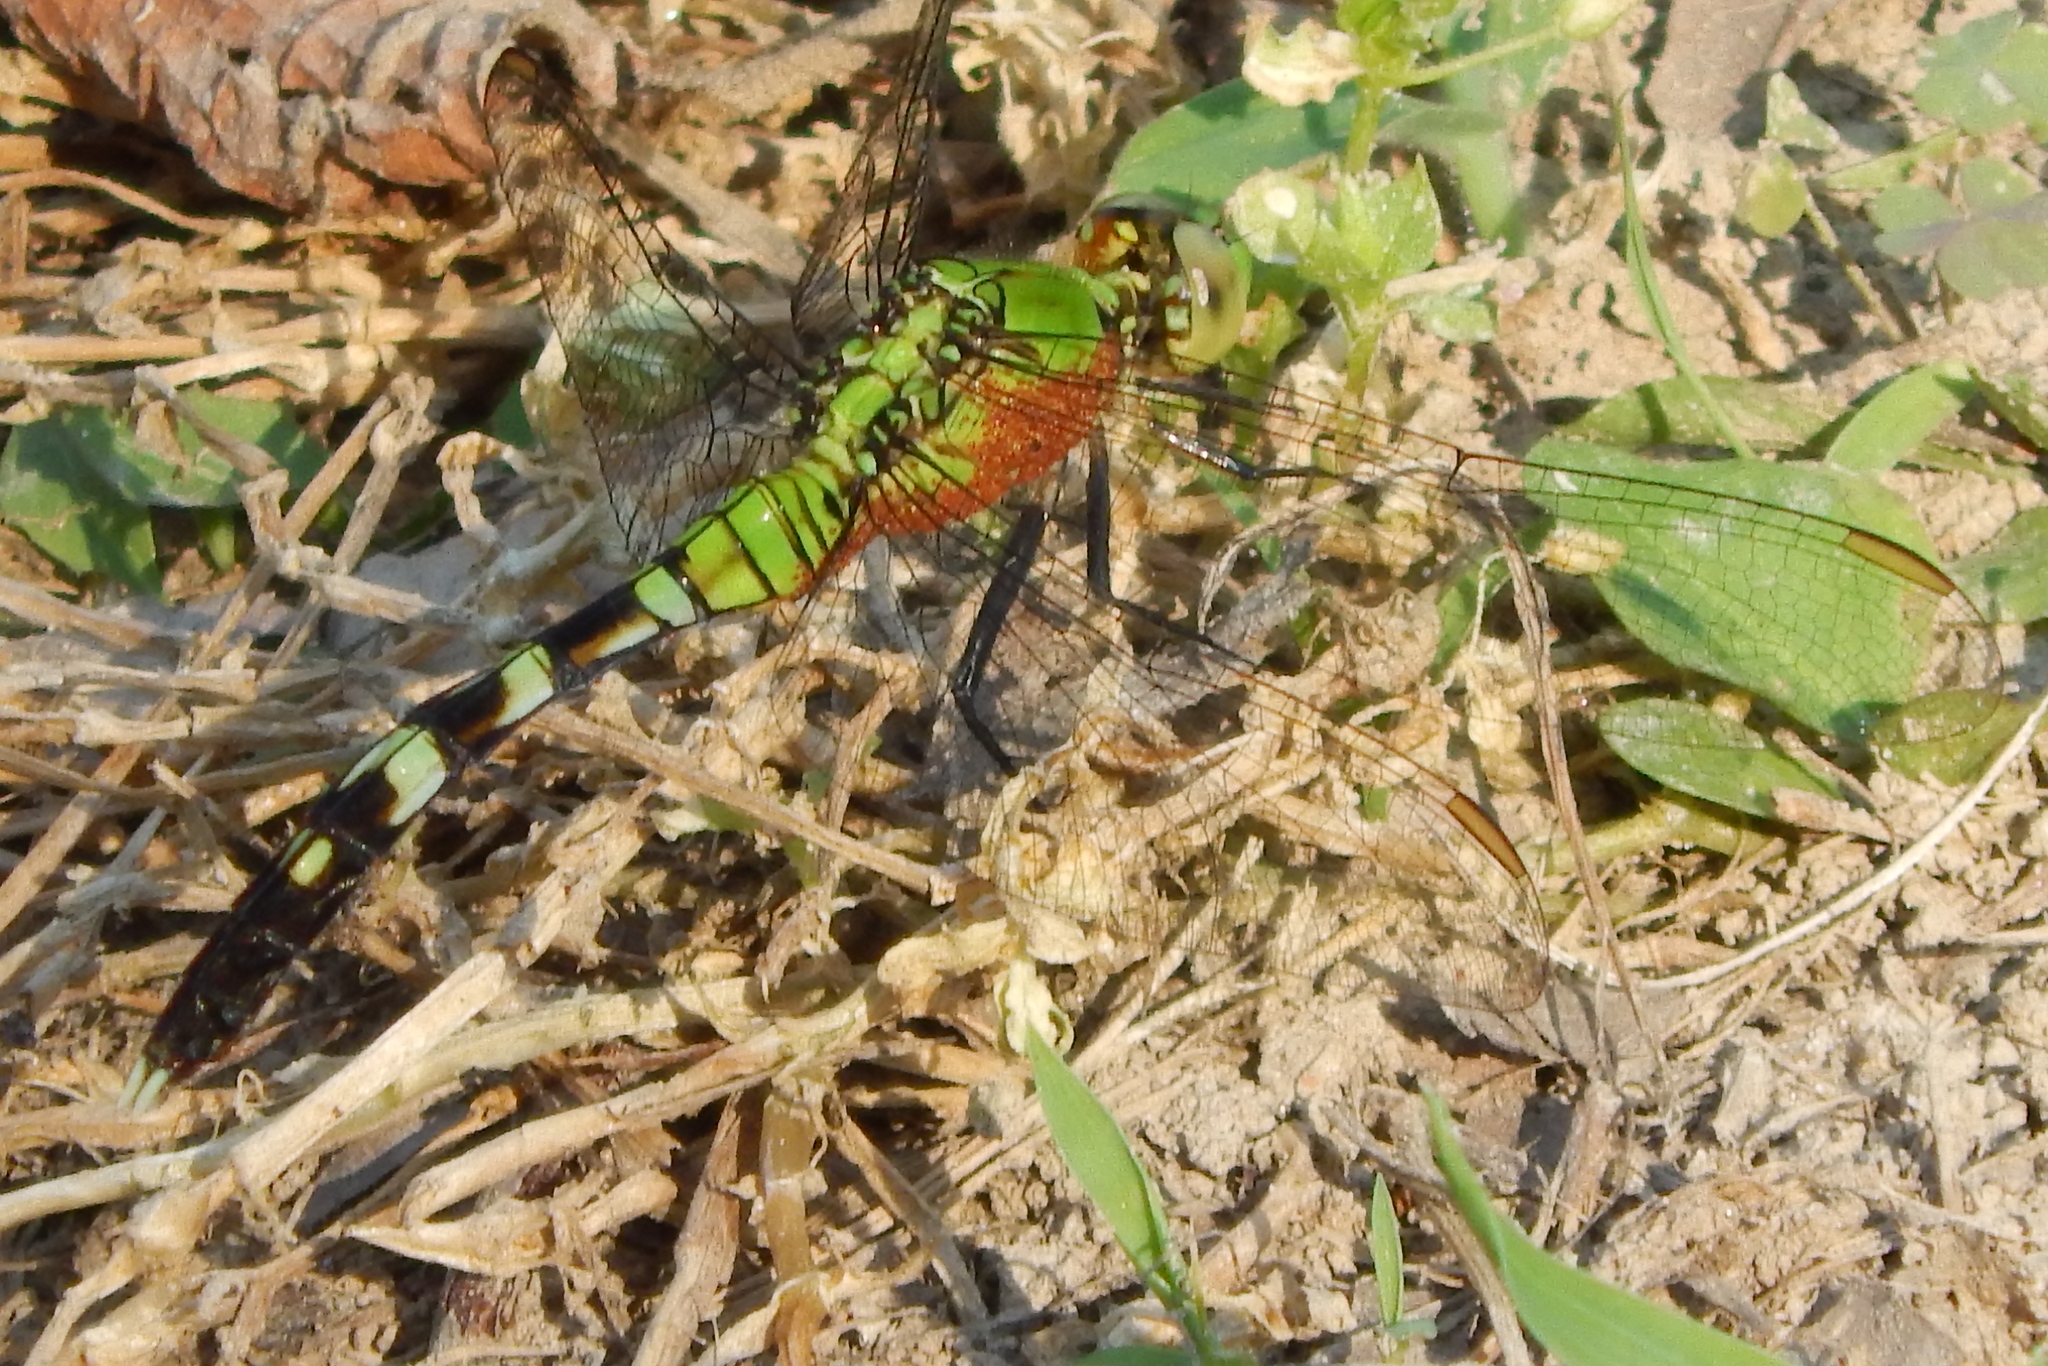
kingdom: Animalia
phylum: Arthropoda
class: Insecta
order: Odonata
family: Libellulidae
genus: Erythemis
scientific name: Erythemis simplicicollis
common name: Eastern pondhawk
